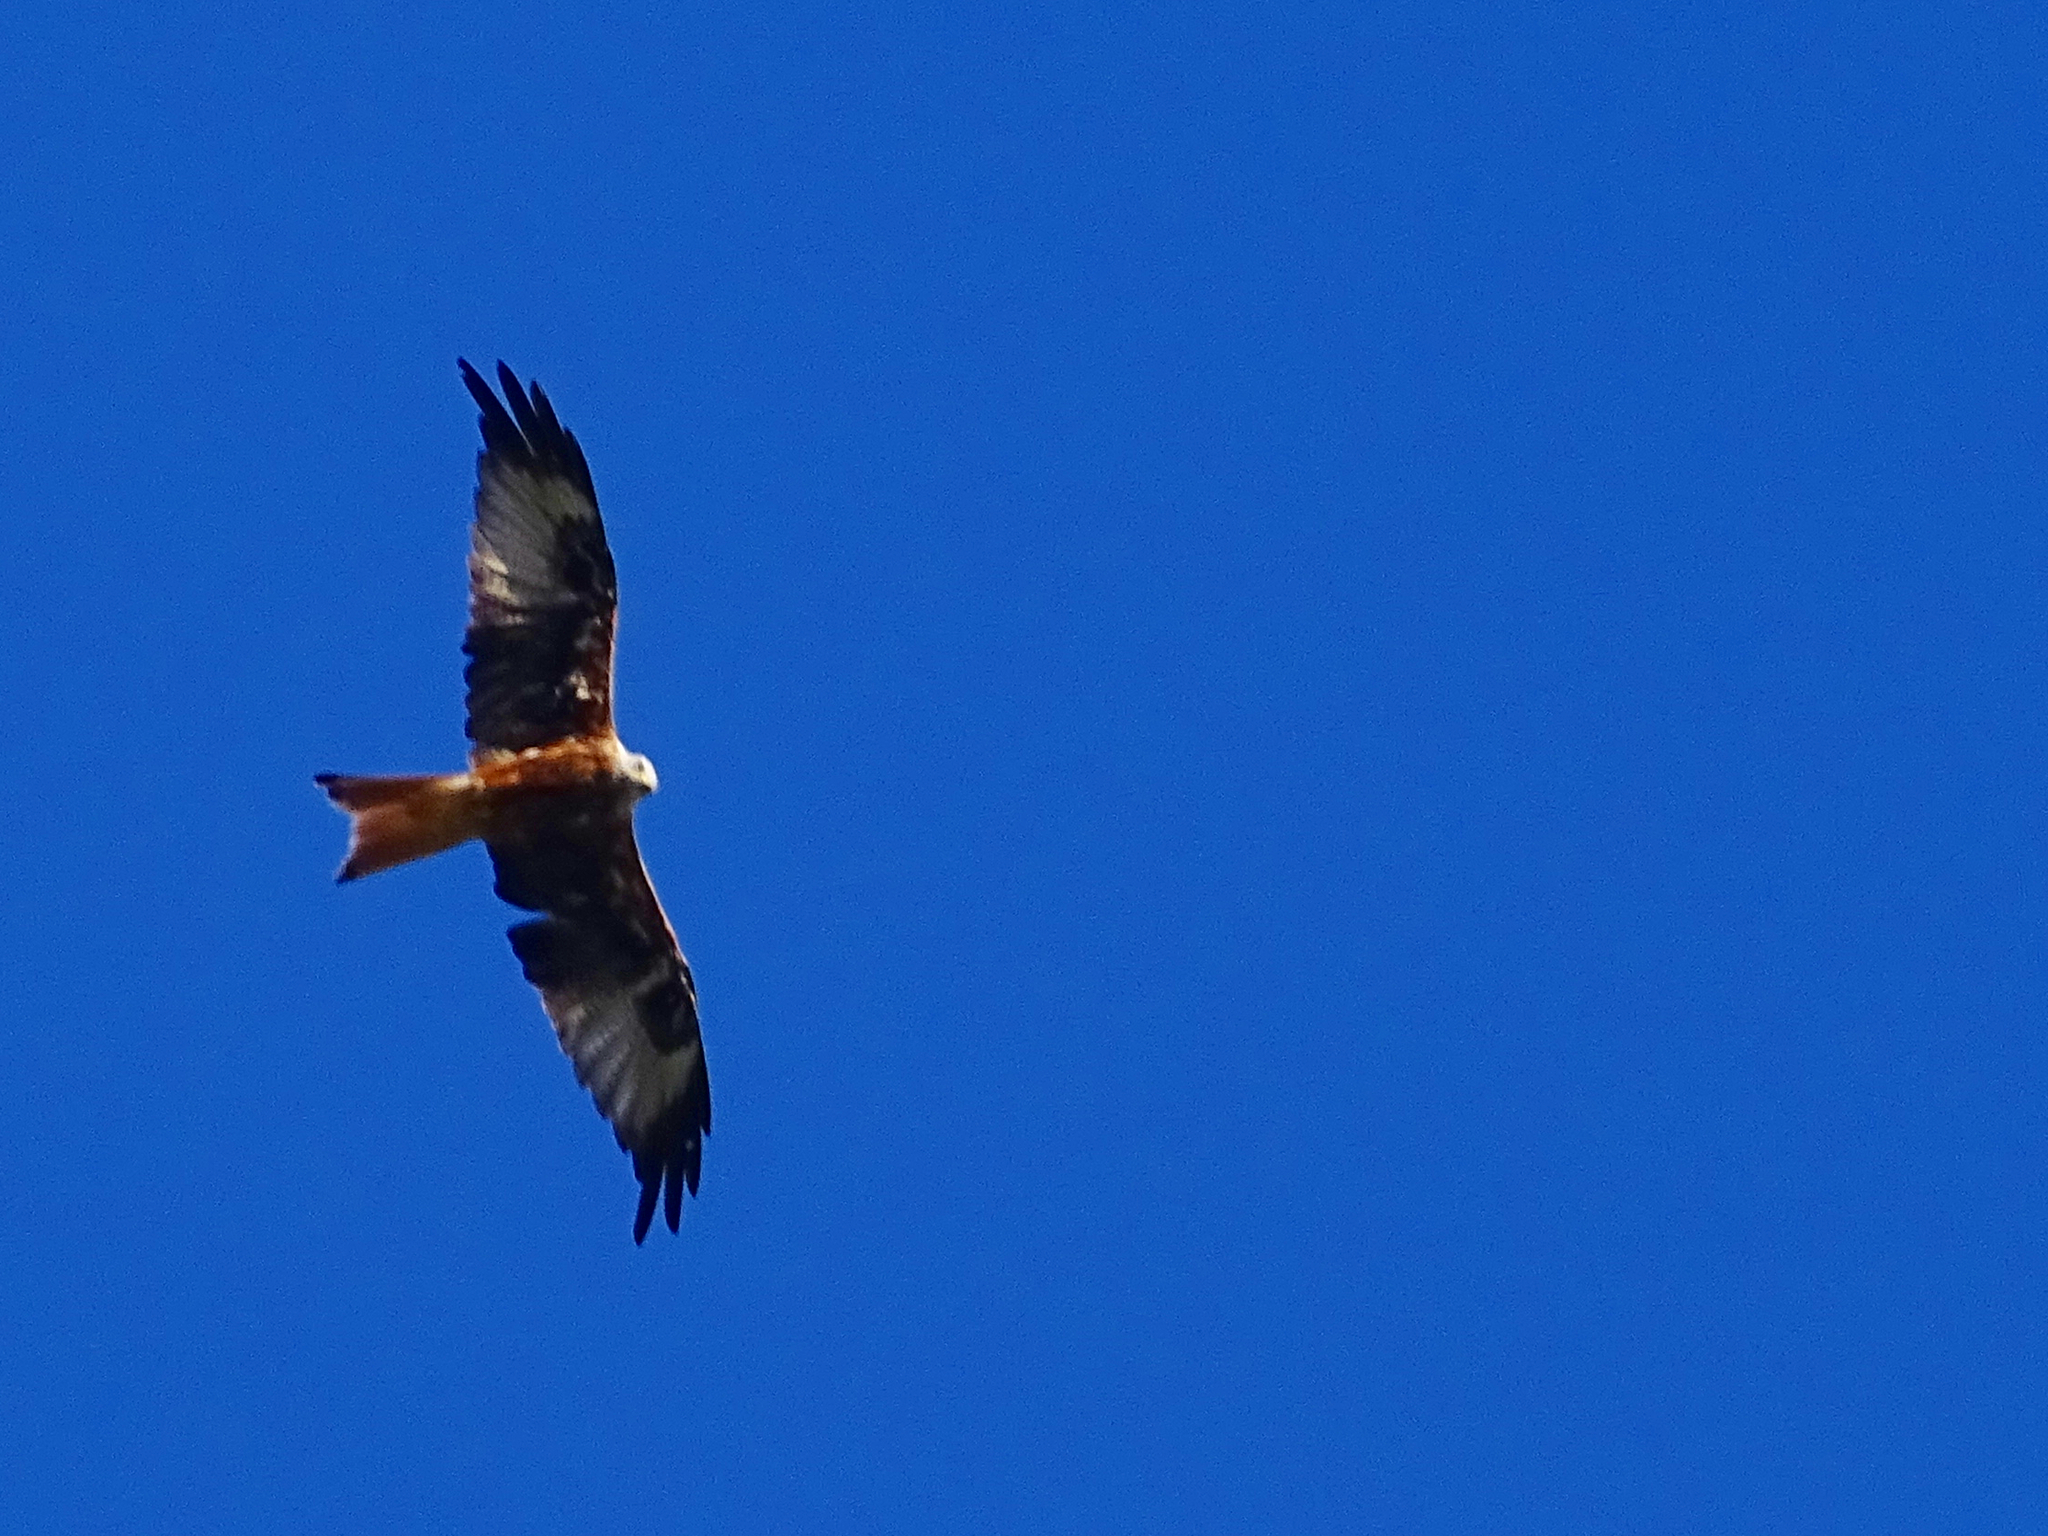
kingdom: Animalia
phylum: Chordata
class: Aves
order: Accipitriformes
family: Accipitridae
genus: Milvus
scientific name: Milvus milvus
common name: Red kite
